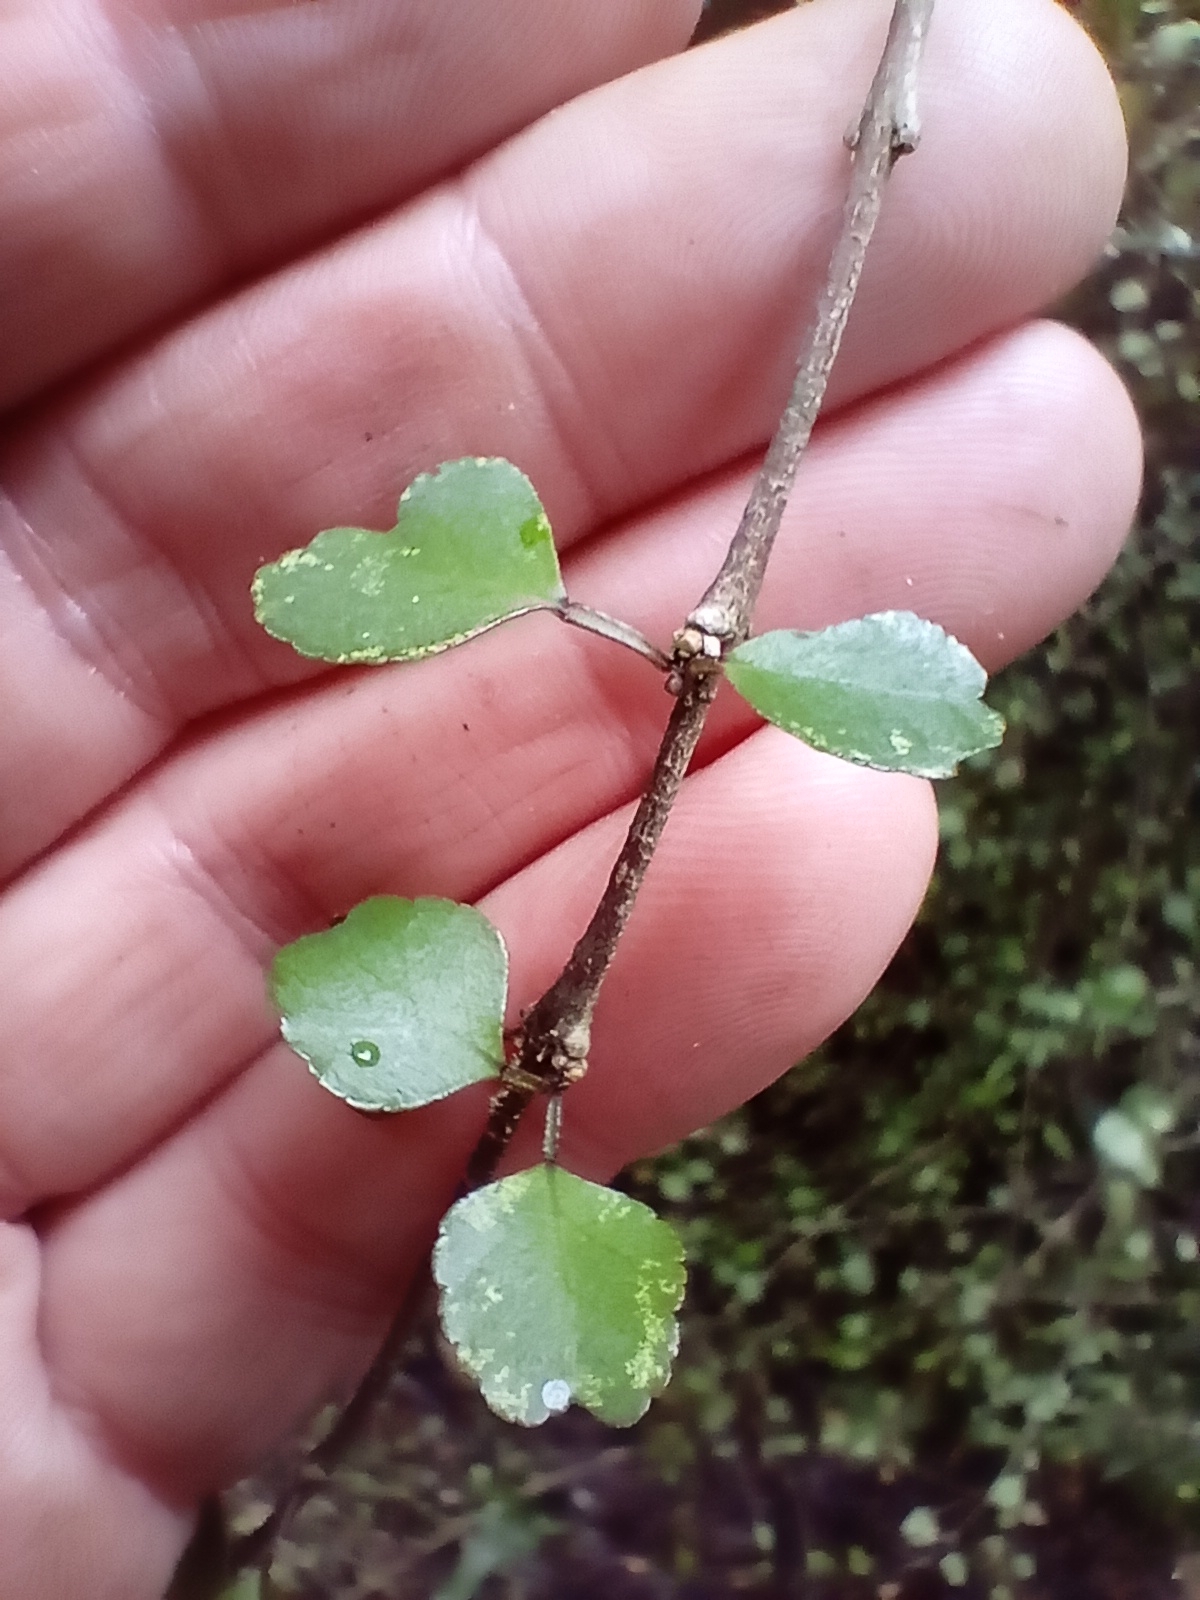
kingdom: Plantae
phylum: Tracheophyta
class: Magnoliopsida
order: Sapindales
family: Rutaceae
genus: Melicope
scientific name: Melicope simplex
